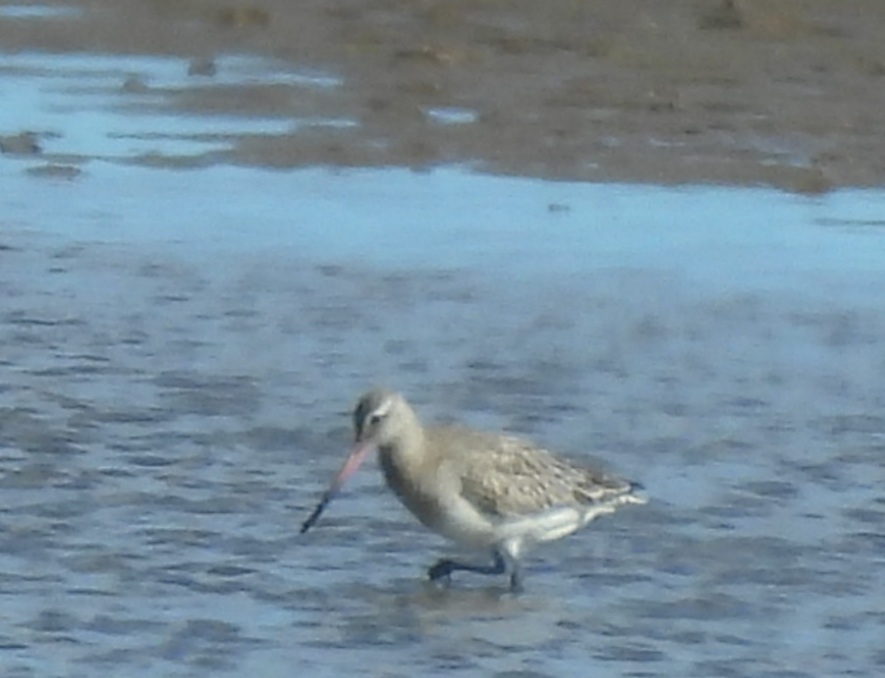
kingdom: Animalia
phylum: Chordata
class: Aves
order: Charadriiformes
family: Scolopacidae
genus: Limosa
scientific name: Limosa lapponica
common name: Bar-tailed godwit
